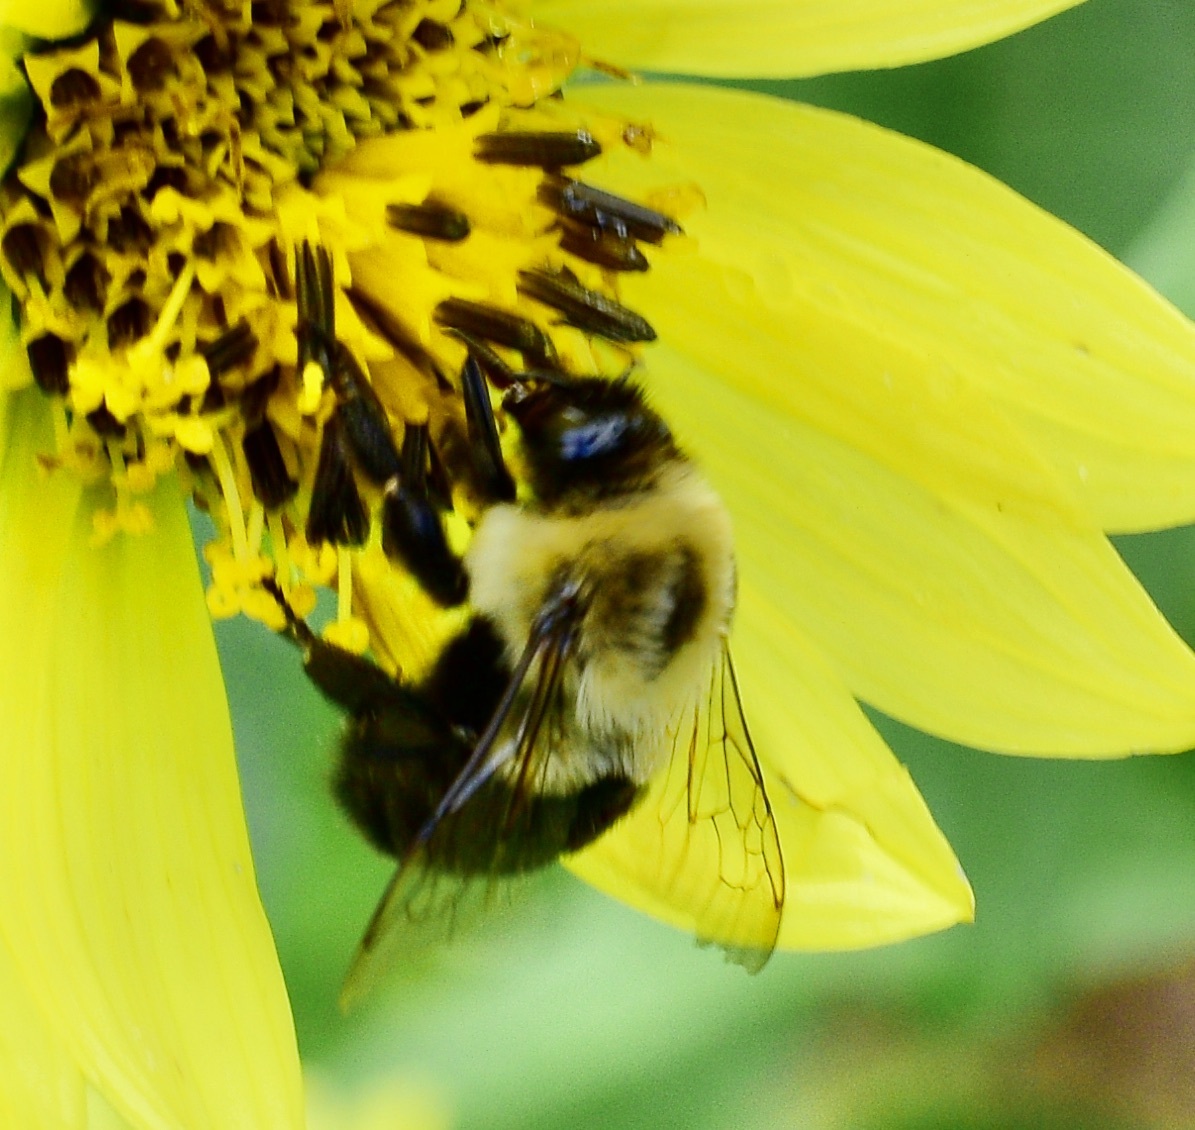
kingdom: Animalia
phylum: Arthropoda
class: Insecta
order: Hymenoptera
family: Apidae
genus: Bombus
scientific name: Bombus impatiens
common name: Common eastern bumble bee
